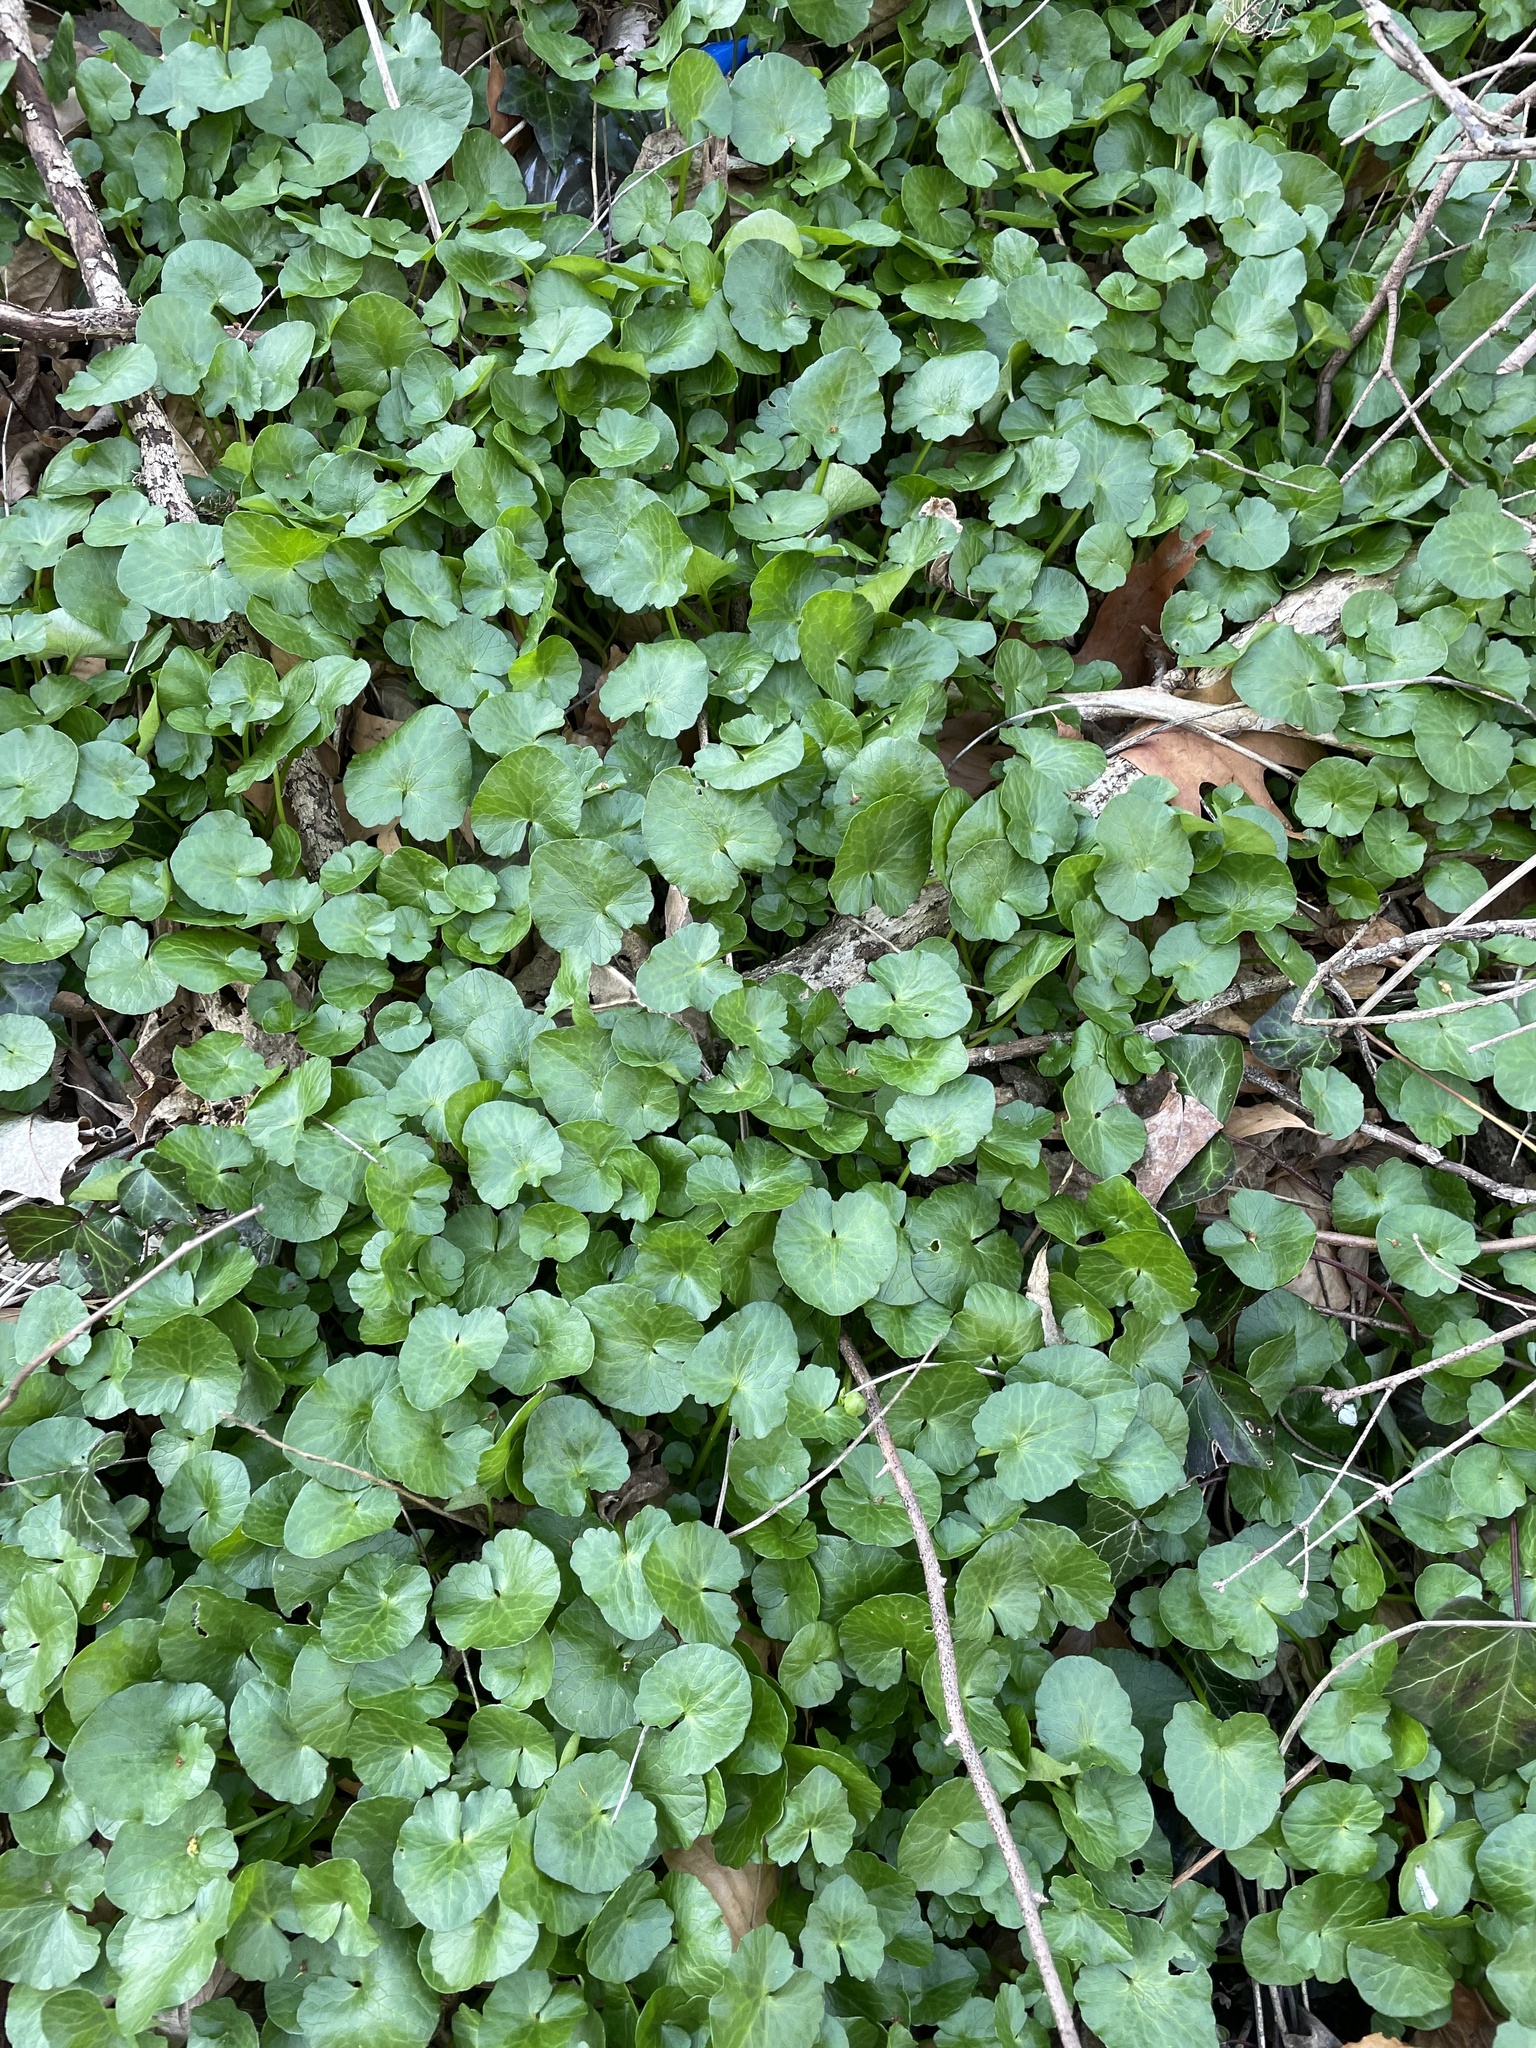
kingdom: Plantae
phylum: Tracheophyta
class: Magnoliopsida
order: Ranunculales
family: Ranunculaceae
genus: Ficaria
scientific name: Ficaria verna
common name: Lesser celandine
